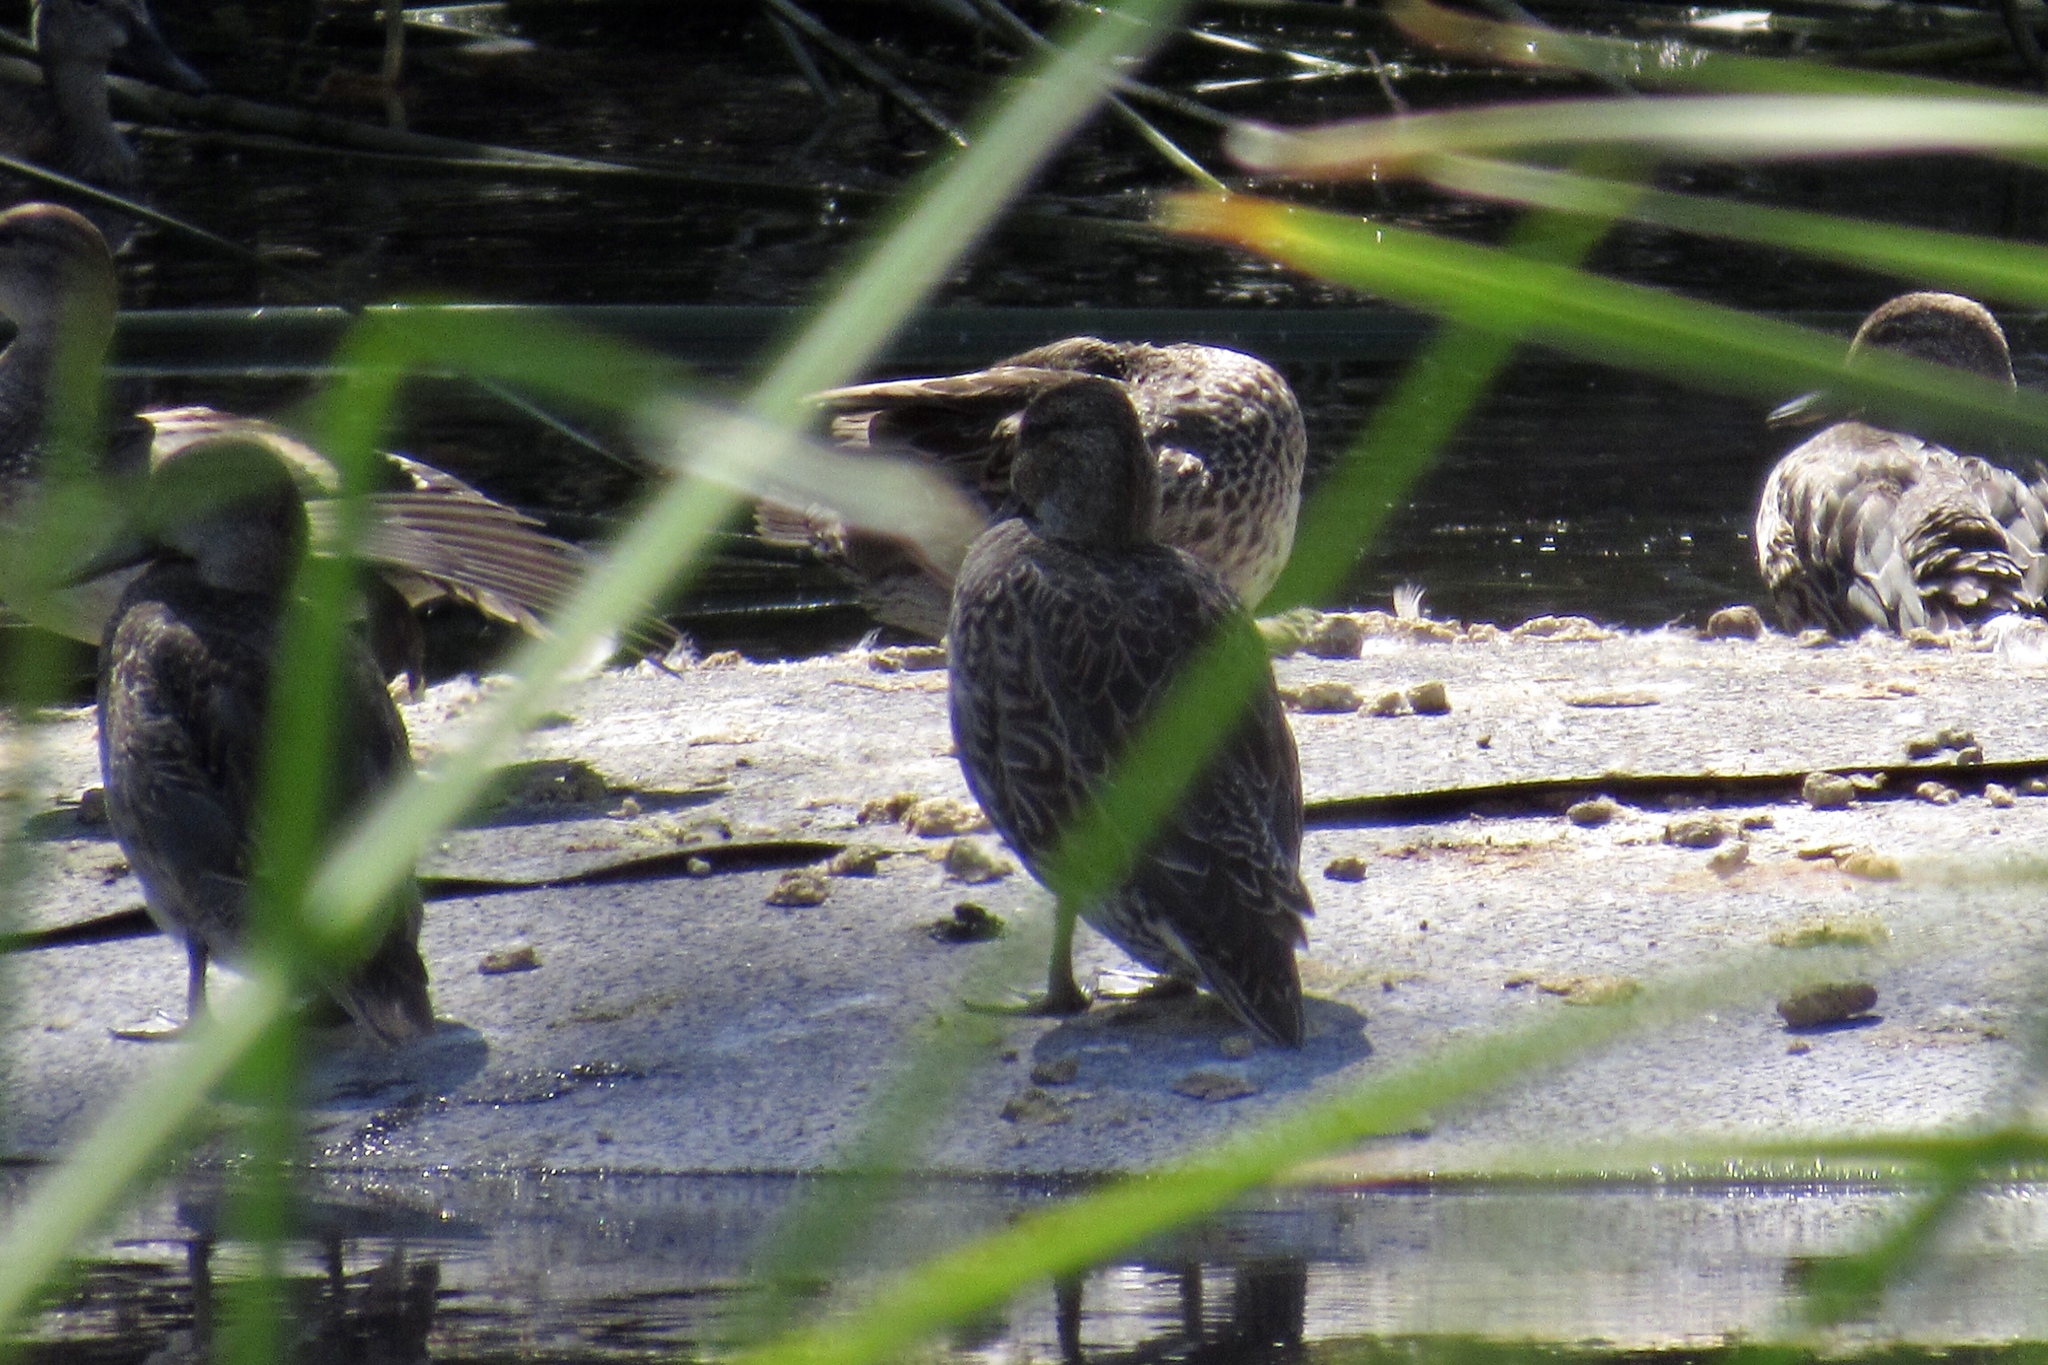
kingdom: Animalia
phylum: Chordata
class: Aves
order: Anseriformes
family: Anatidae
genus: Anas
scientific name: Anas crecca
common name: Eurasian teal
